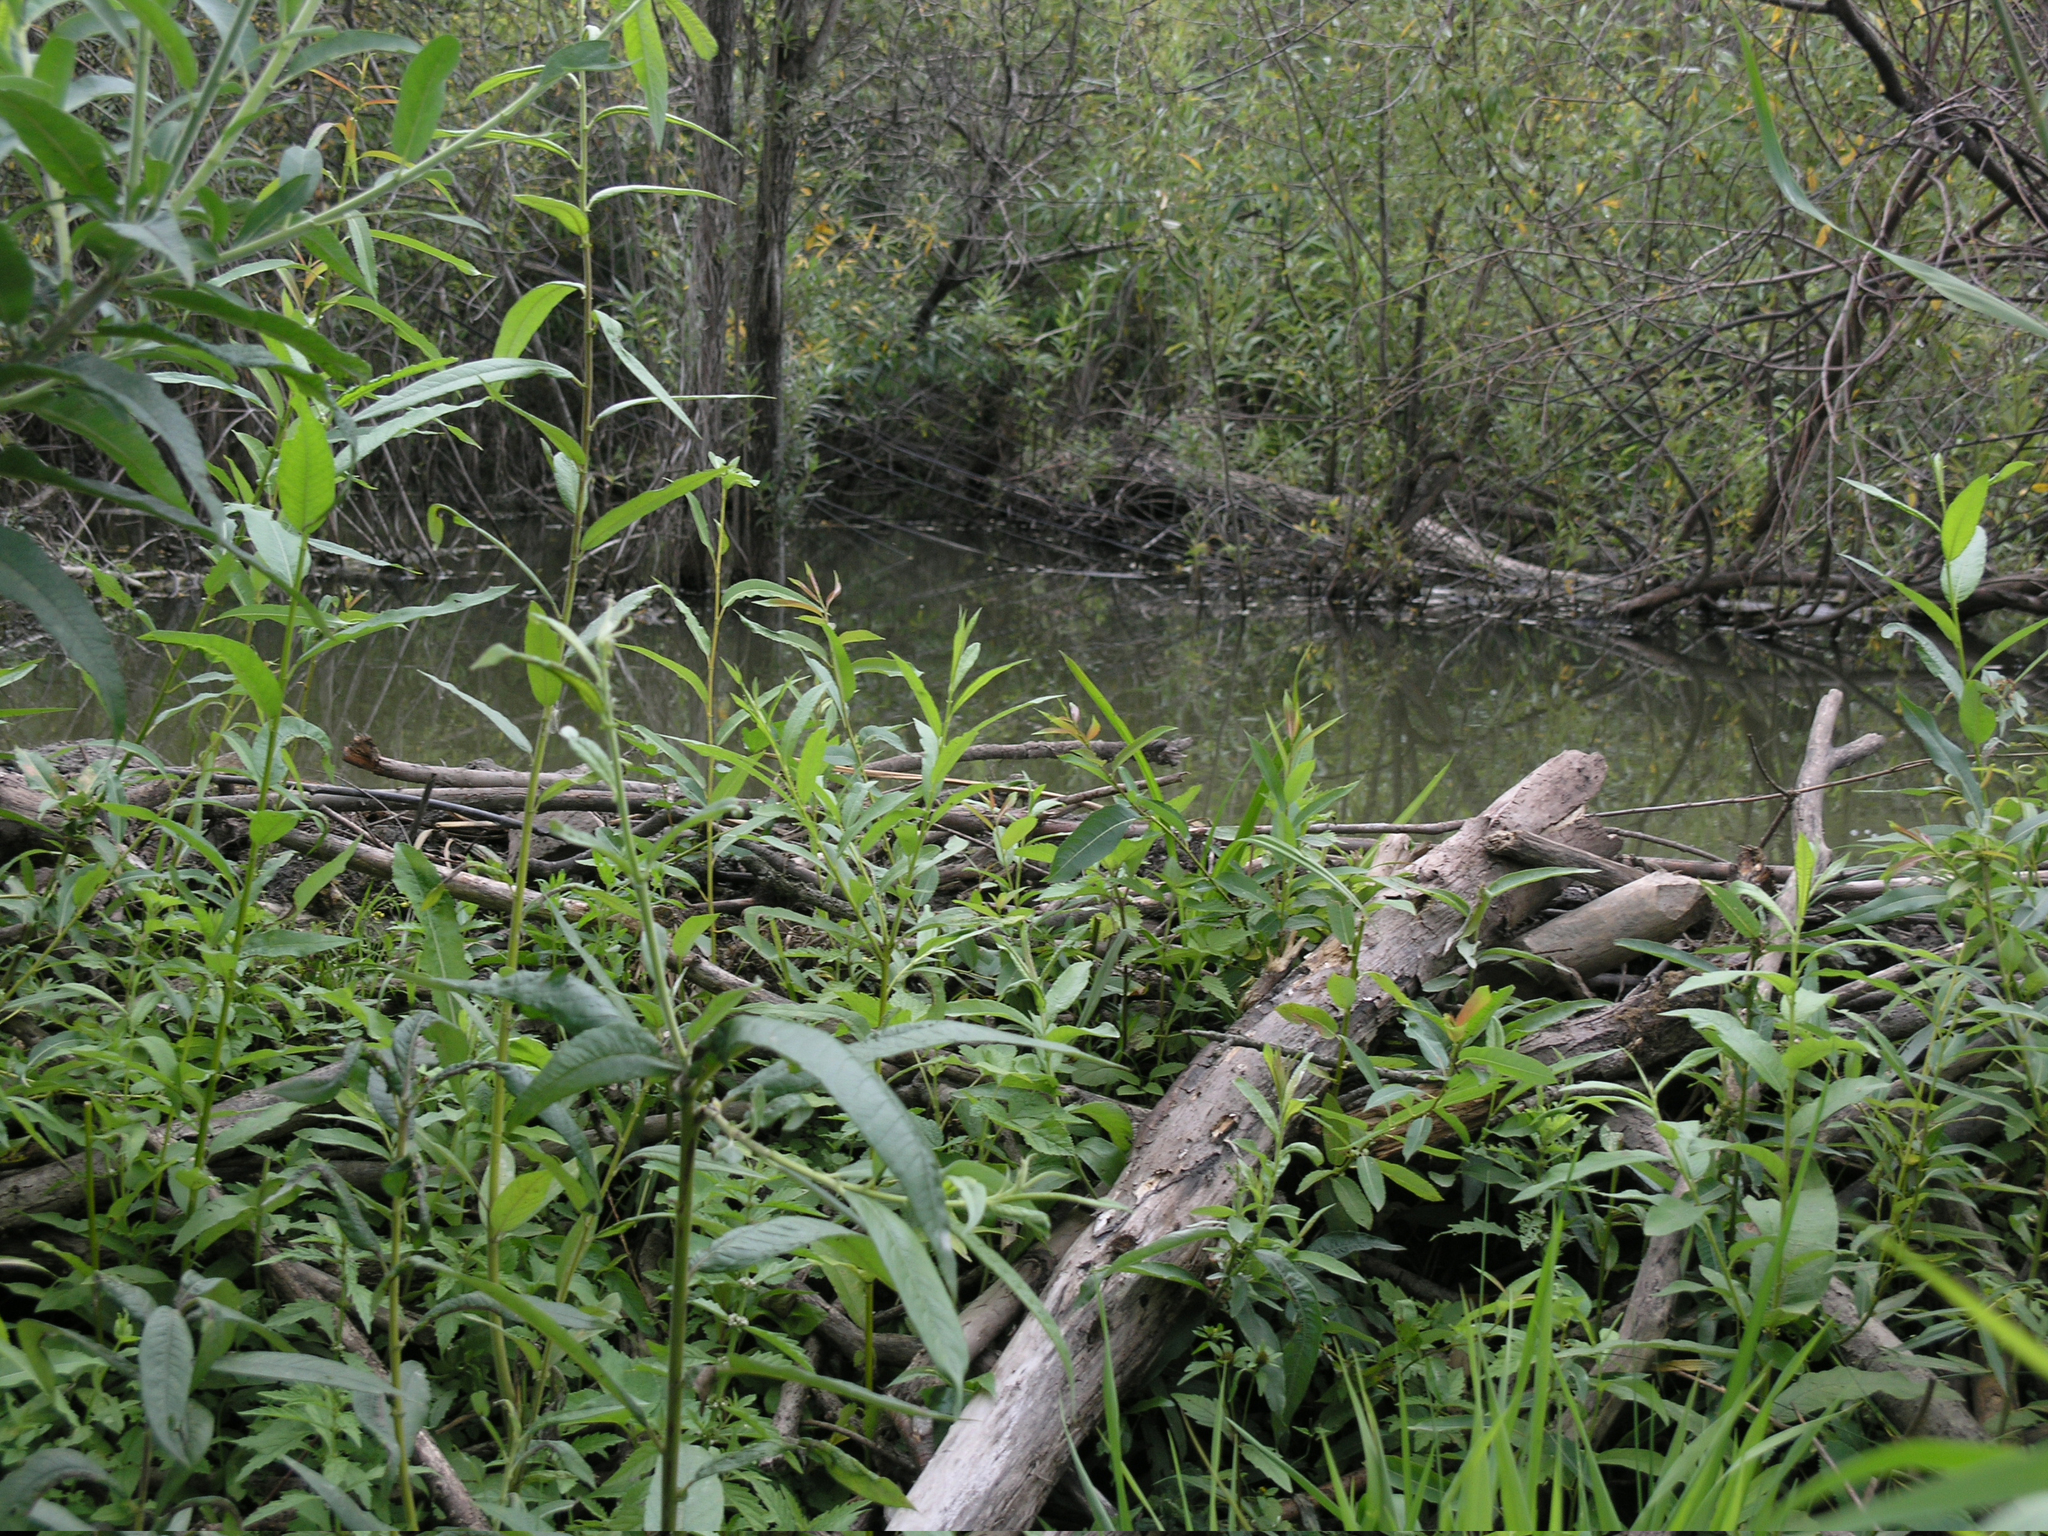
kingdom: Animalia
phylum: Chordata
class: Mammalia
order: Rodentia
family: Castoridae
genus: Castor
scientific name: Castor fiber
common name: Eurasian beaver
